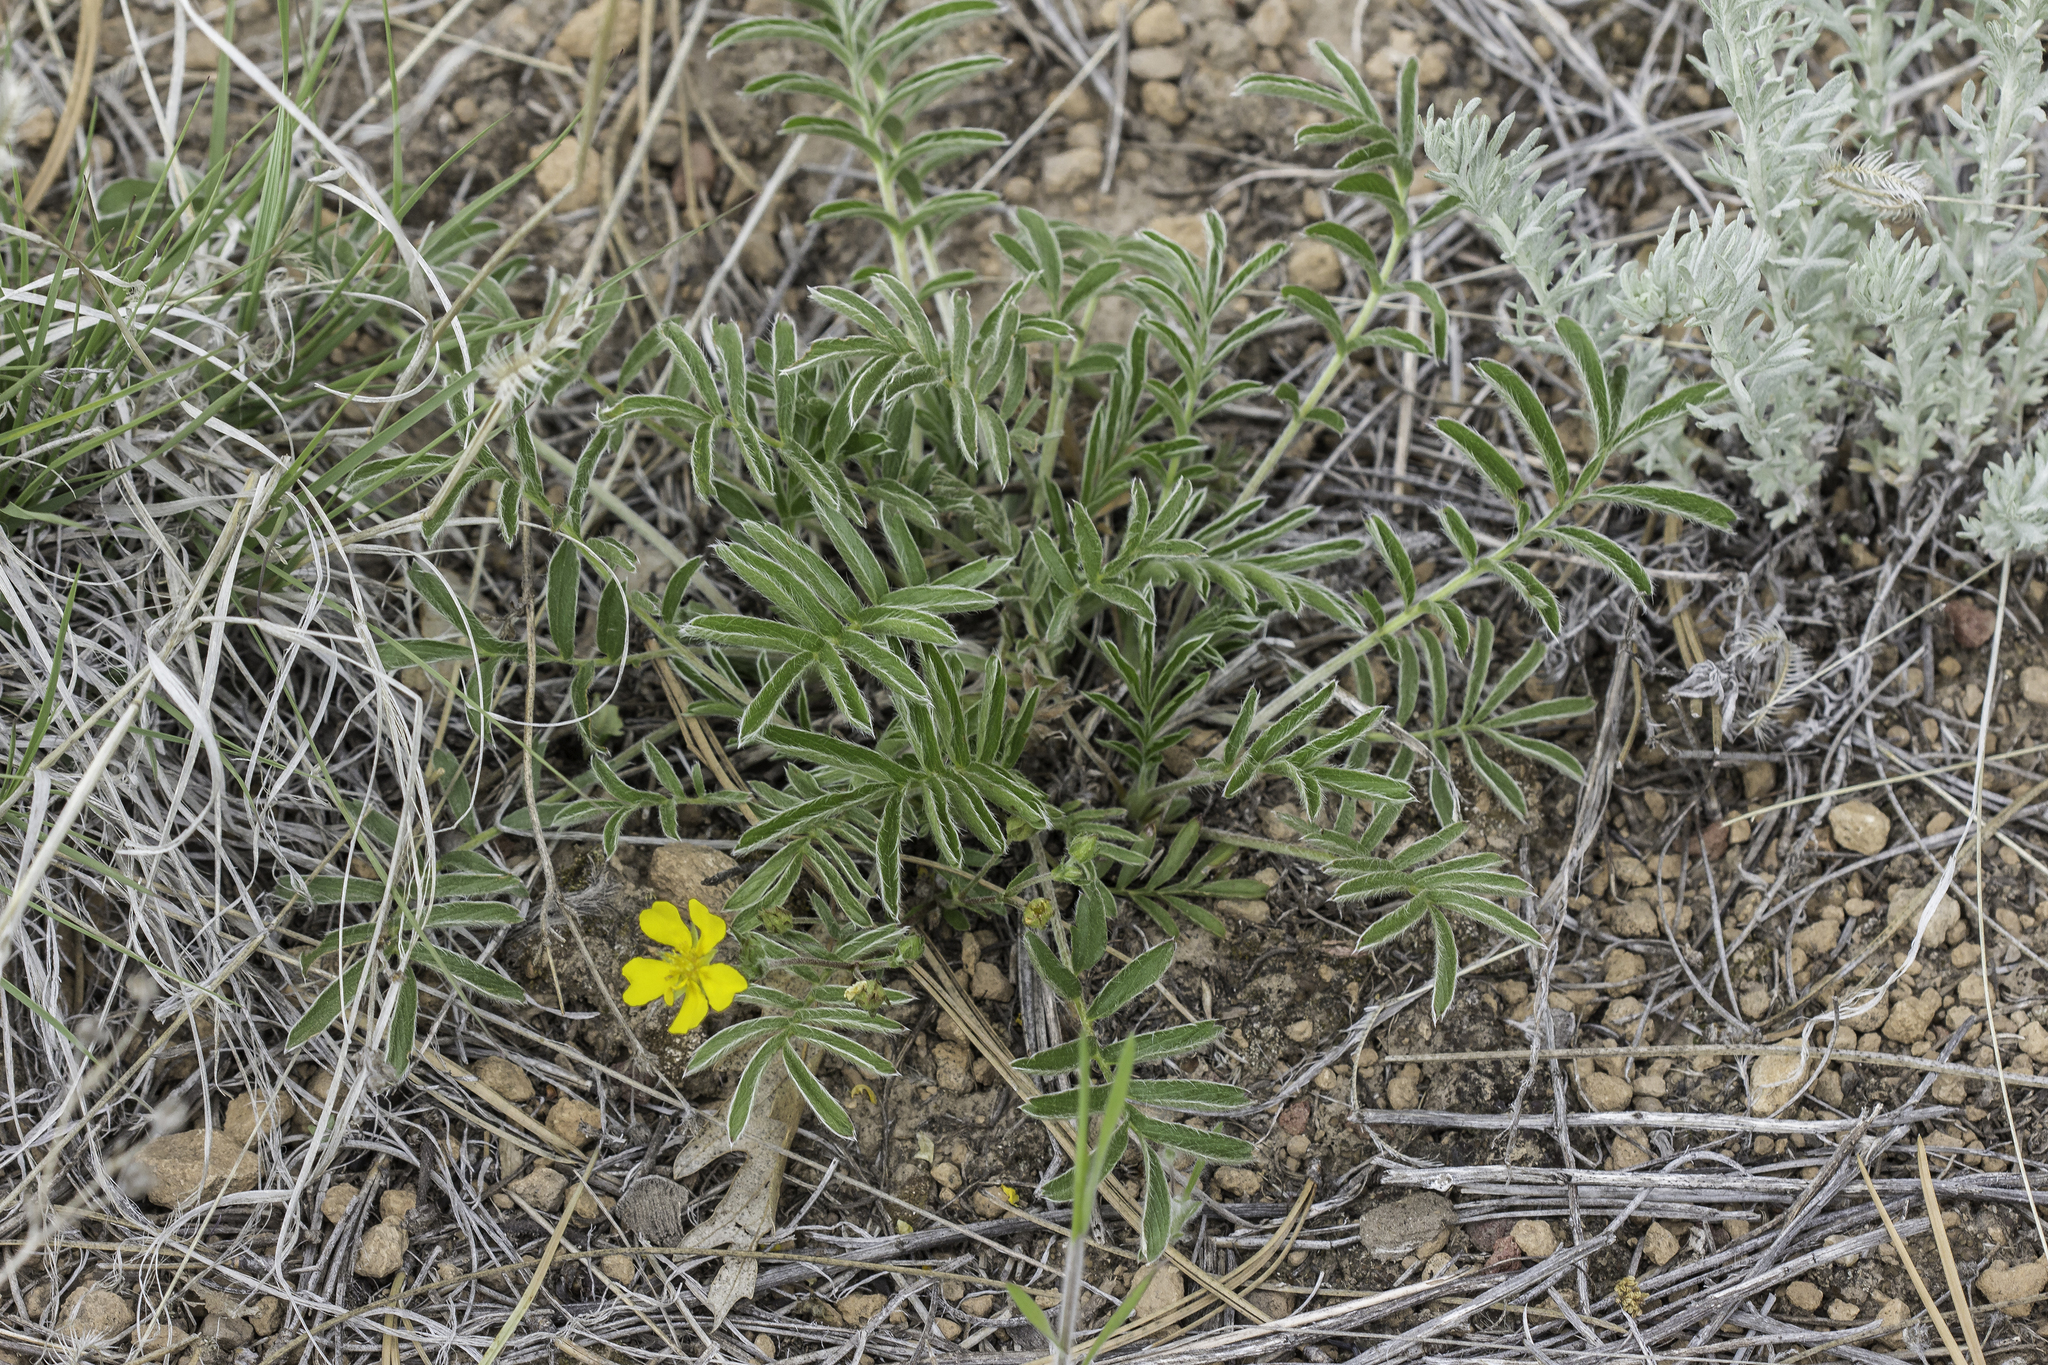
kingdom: Plantae
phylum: Tracheophyta
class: Magnoliopsida
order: Rosales
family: Rosaceae
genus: Potentilla
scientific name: Potentilla crinita
